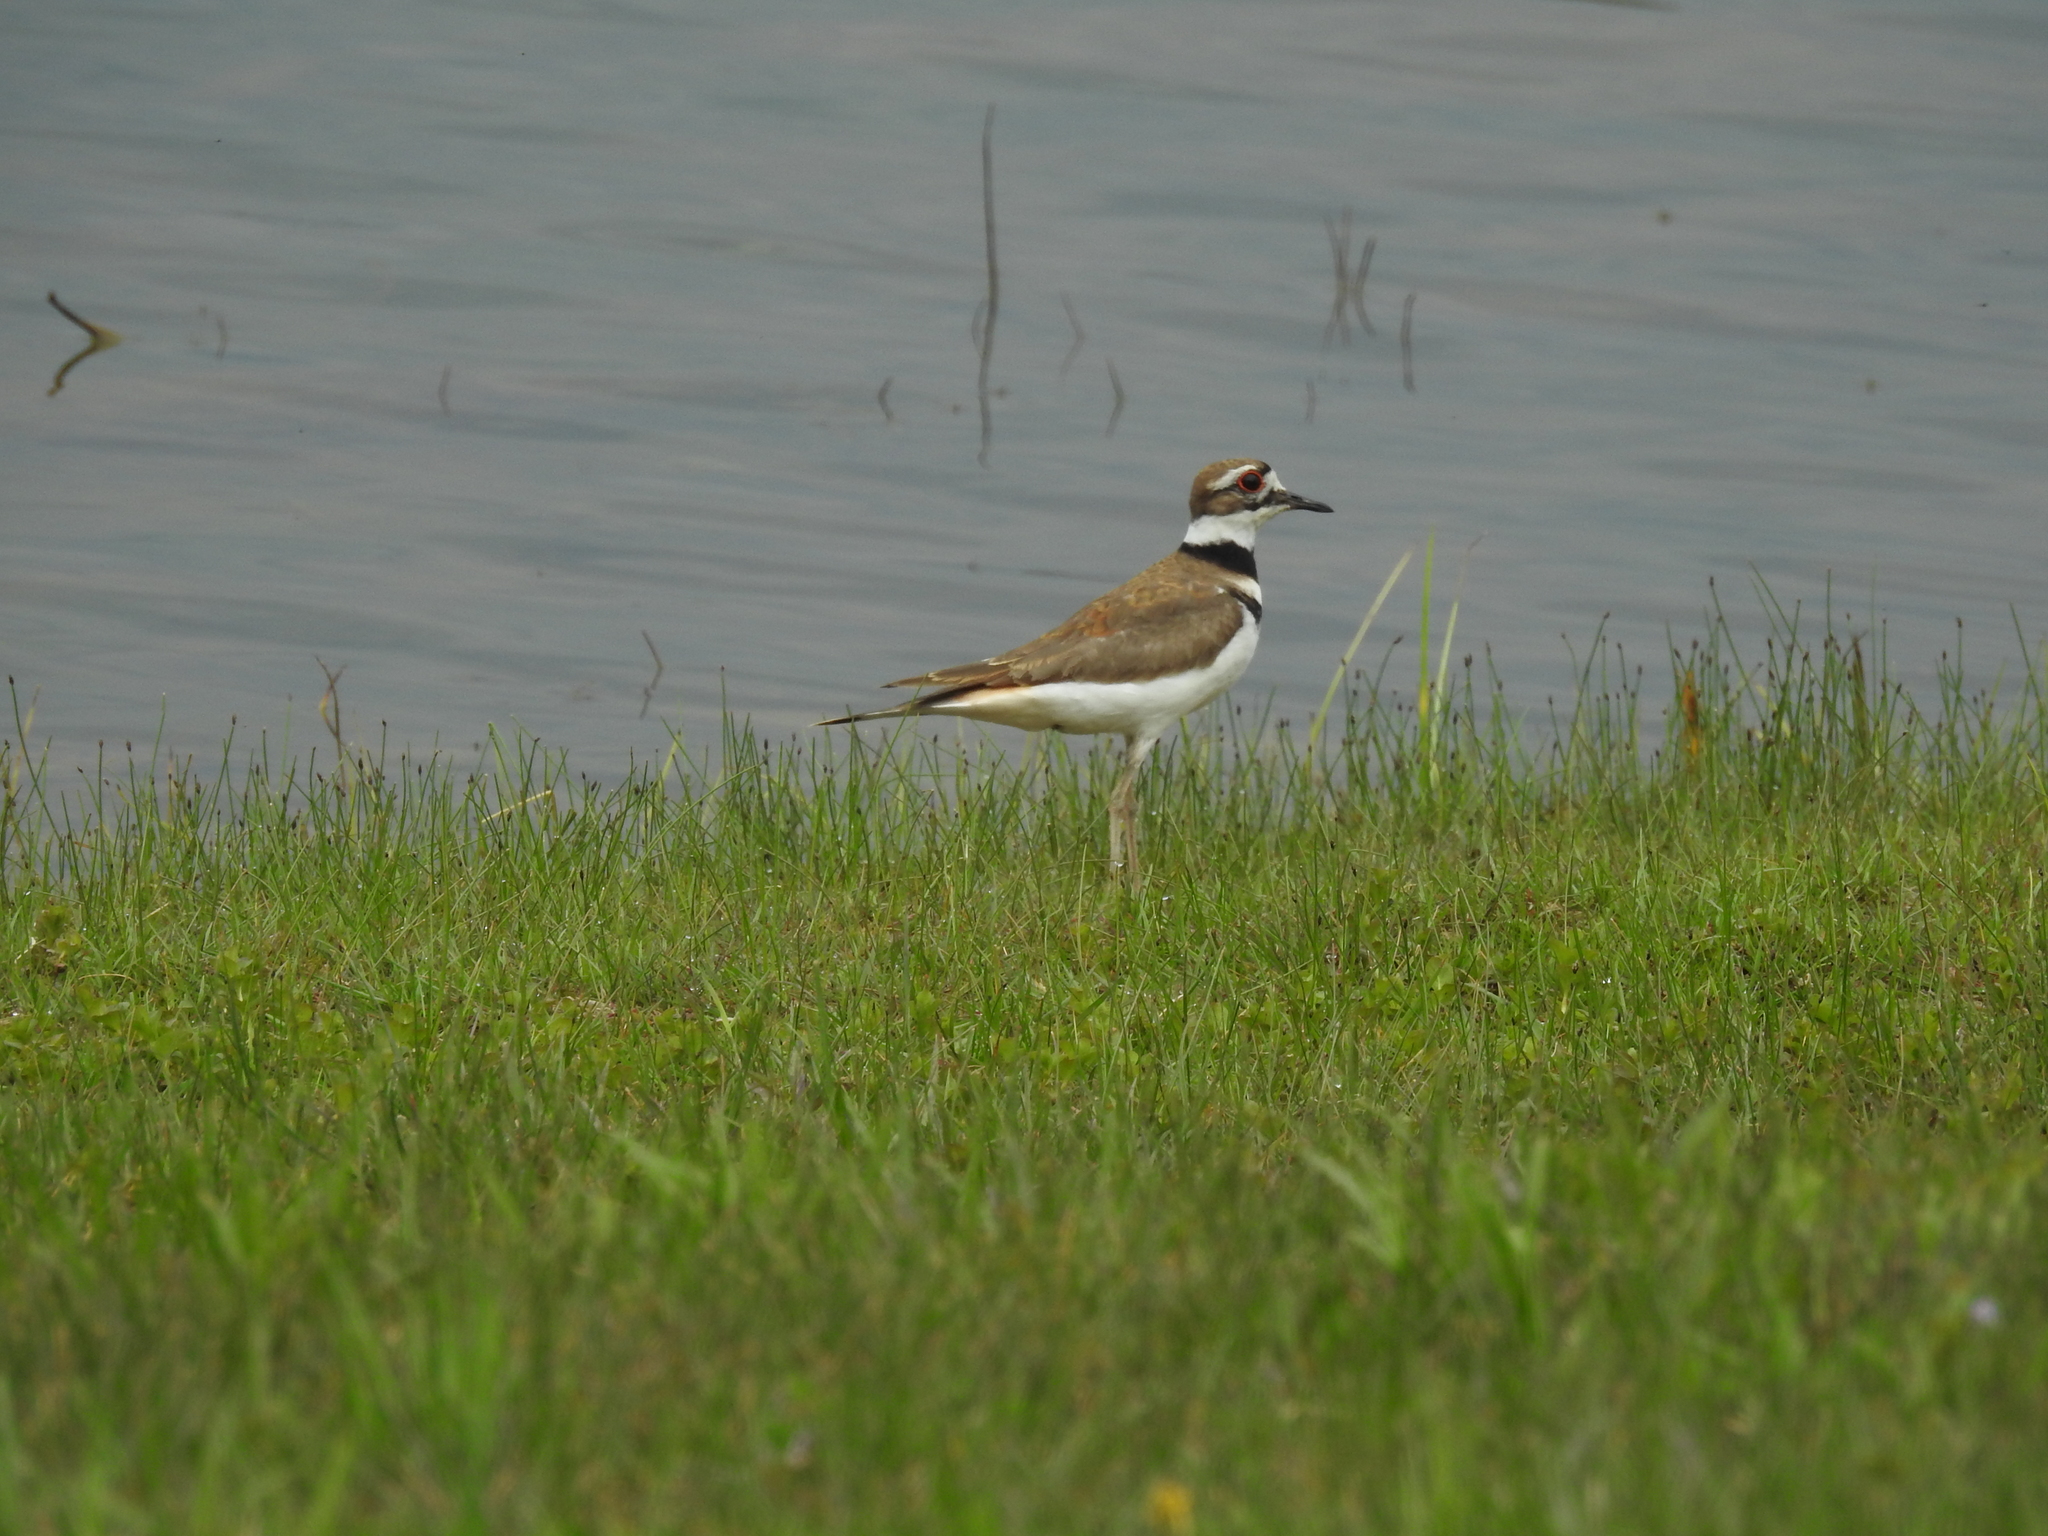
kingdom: Animalia
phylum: Chordata
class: Aves
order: Charadriiformes
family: Charadriidae
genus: Charadrius
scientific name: Charadrius vociferus
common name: Killdeer
